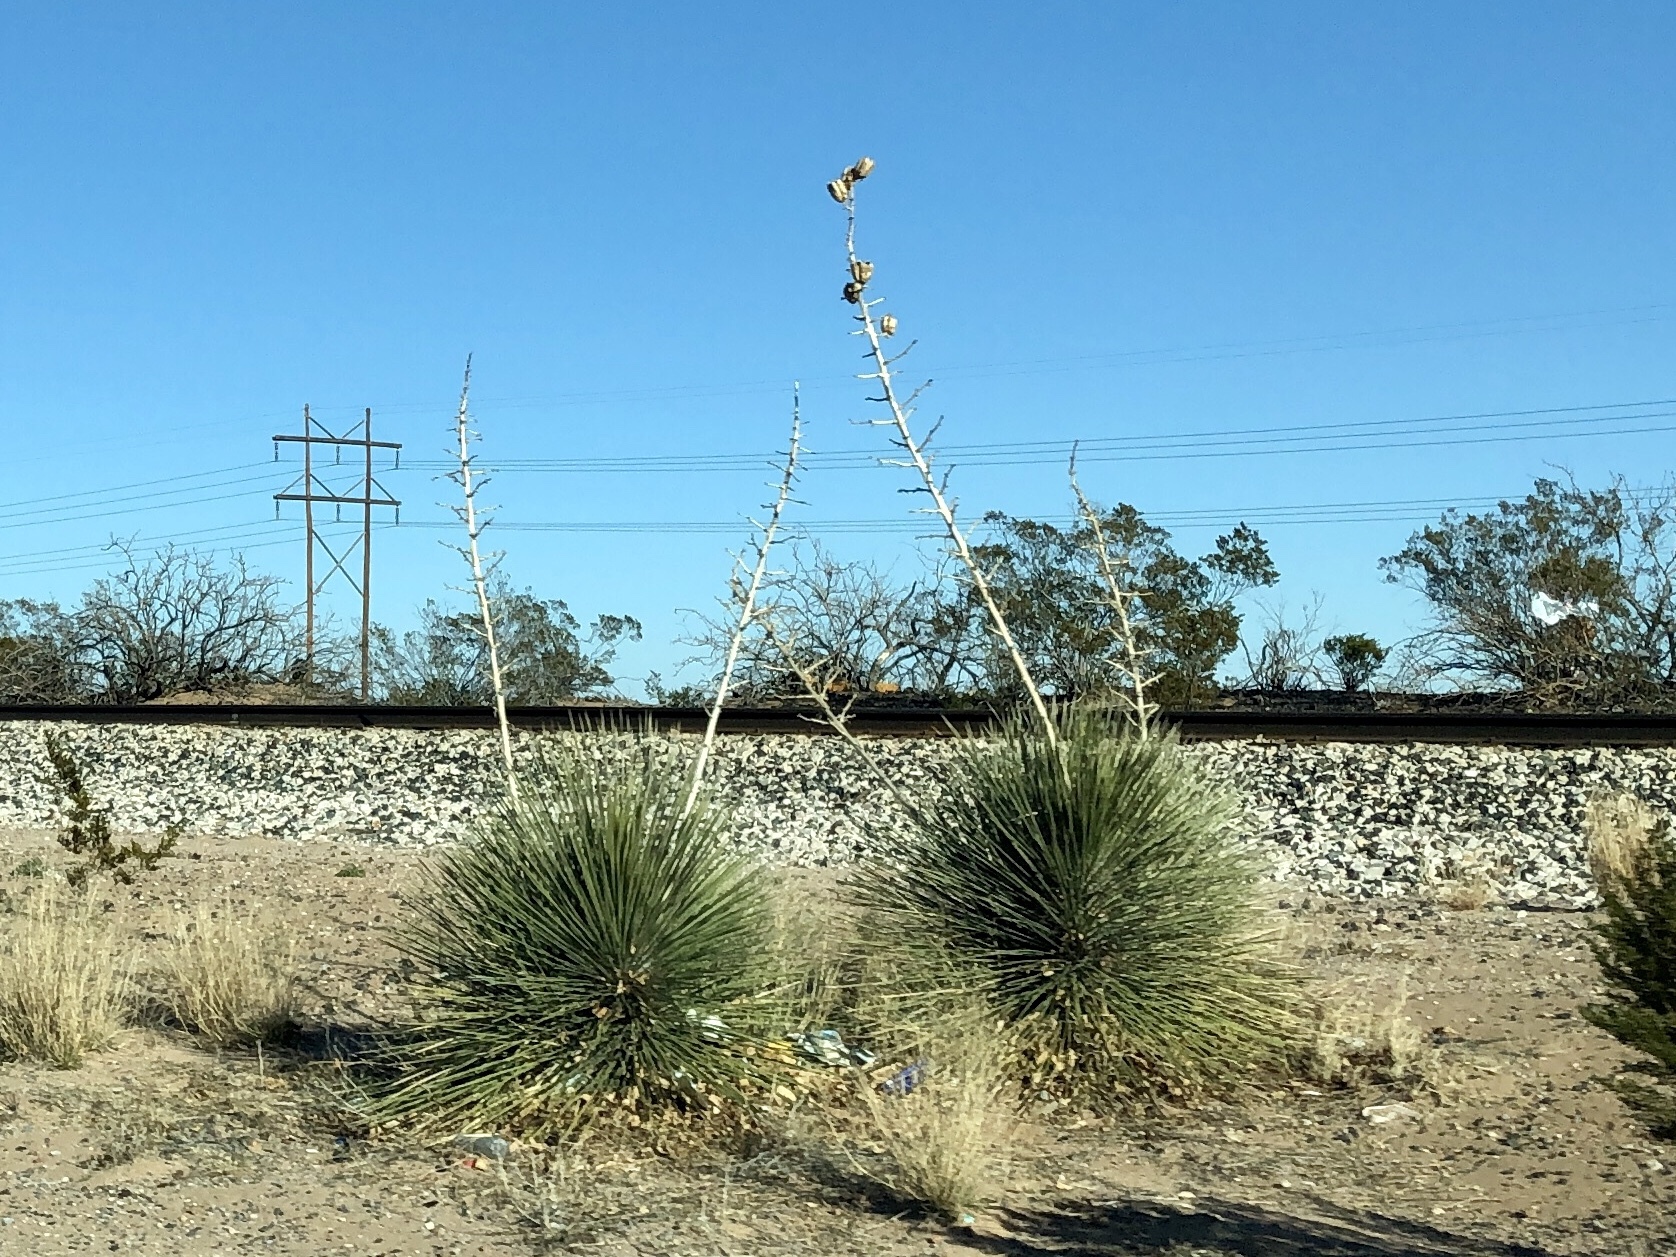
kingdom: Plantae
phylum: Tracheophyta
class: Liliopsida
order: Asparagales
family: Asparagaceae
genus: Yucca
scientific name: Yucca elata
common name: Palmella
